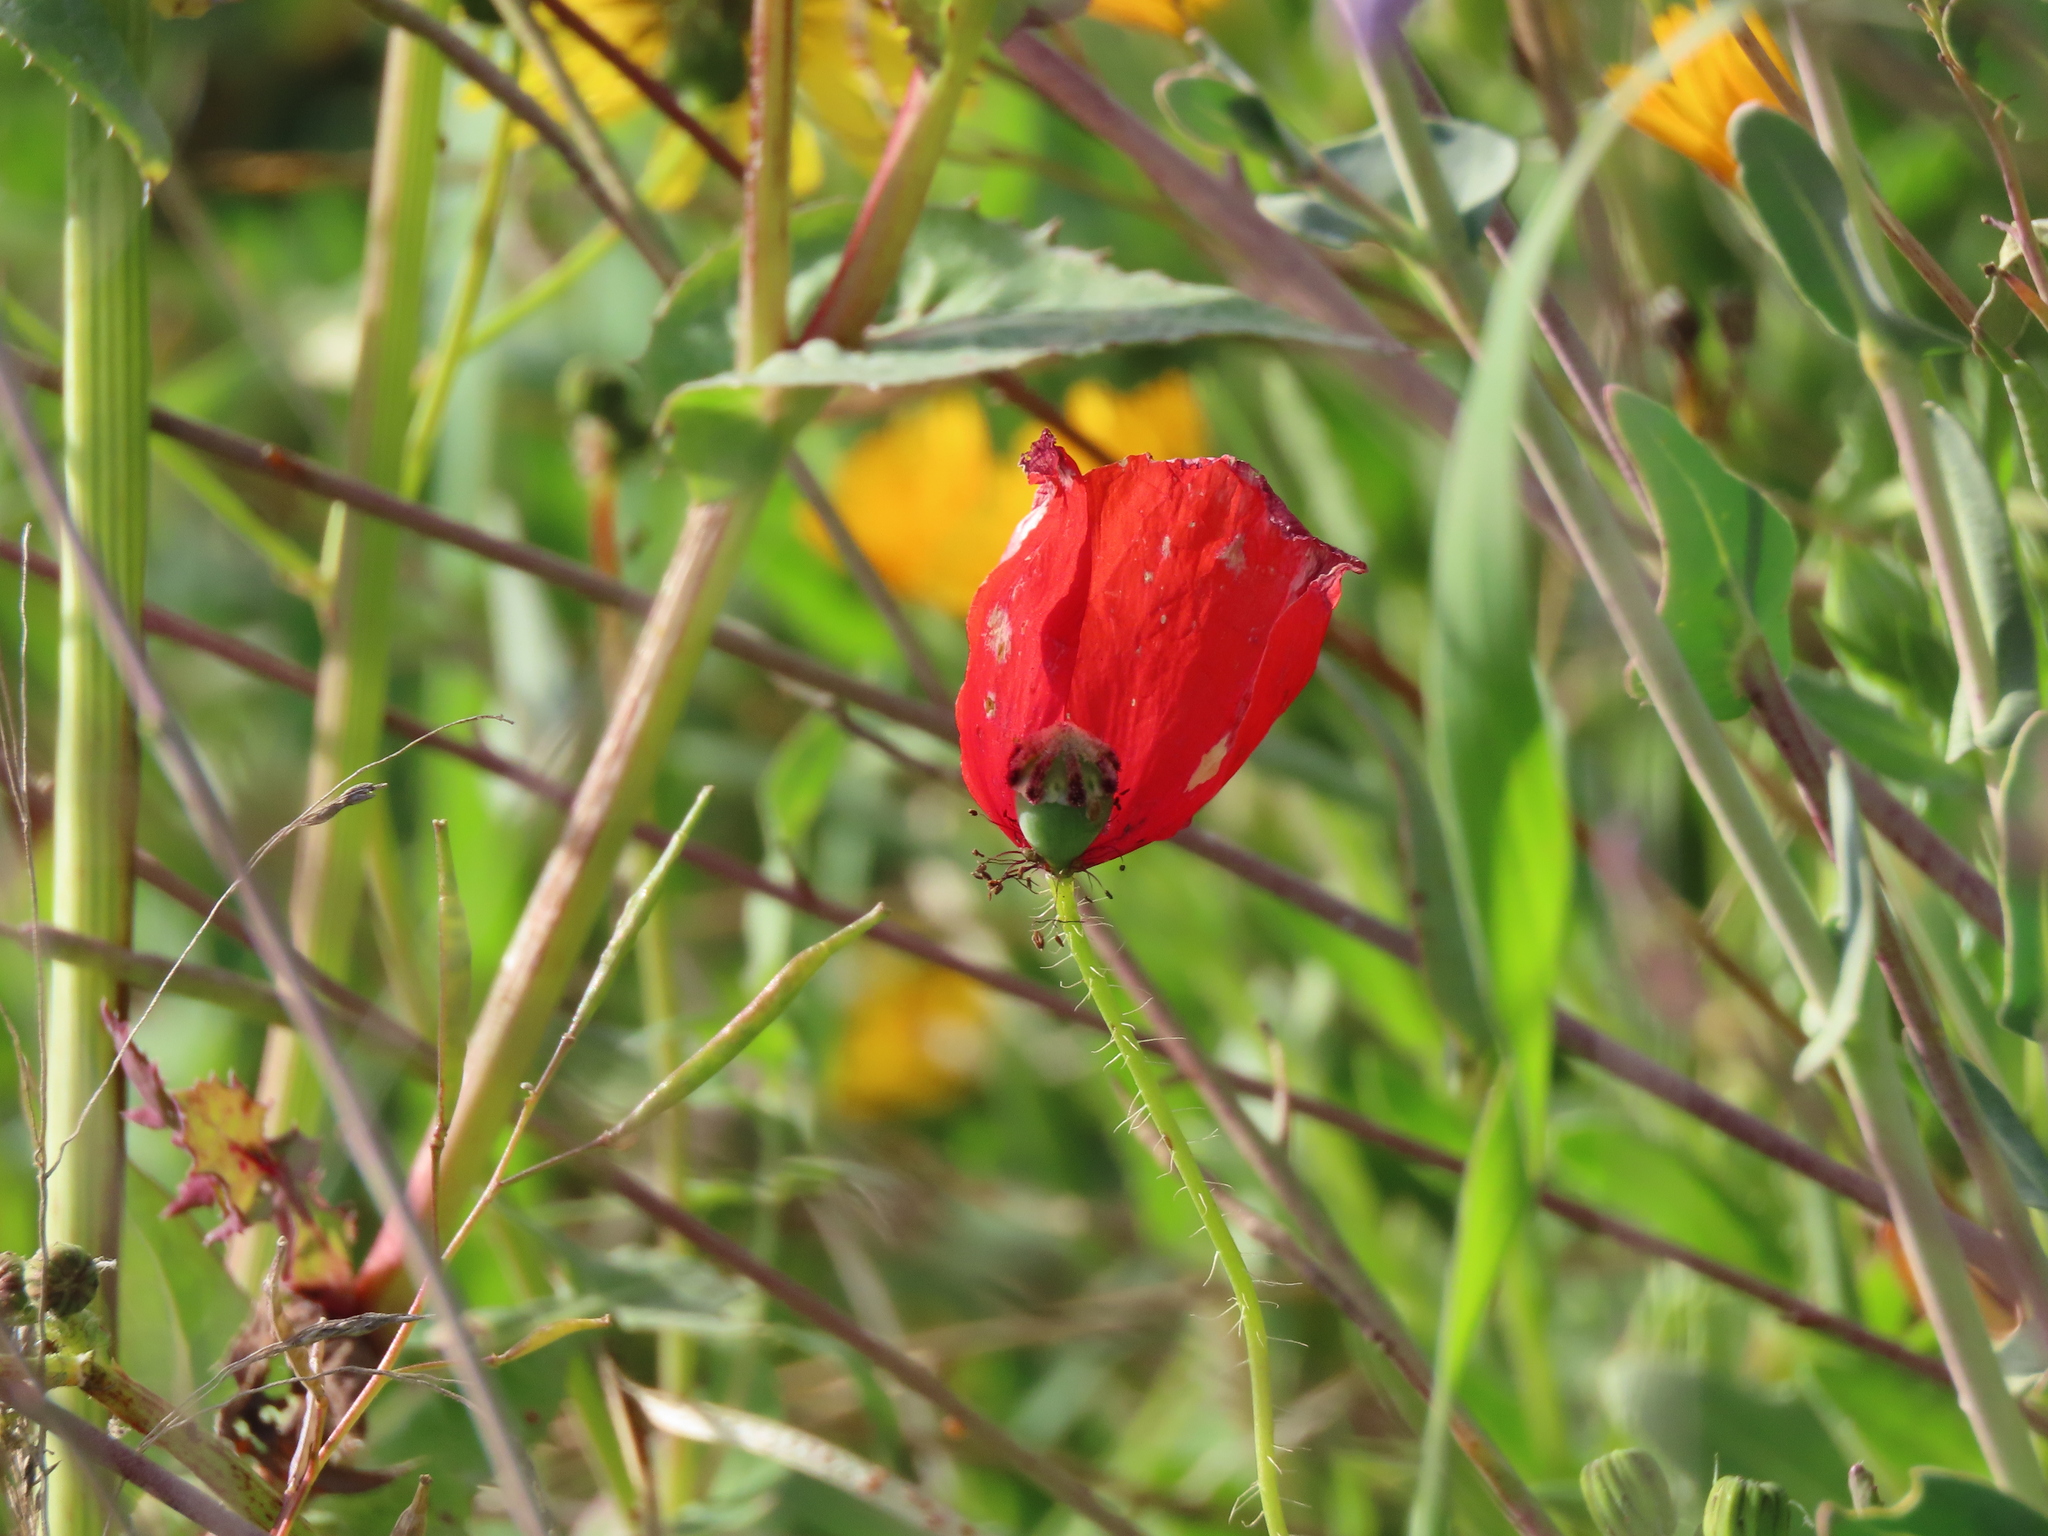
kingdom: Plantae
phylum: Tracheophyta
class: Magnoliopsida
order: Ranunculales
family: Papaveraceae
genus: Papaver
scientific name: Papaver rhoeas
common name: Corn poppy
